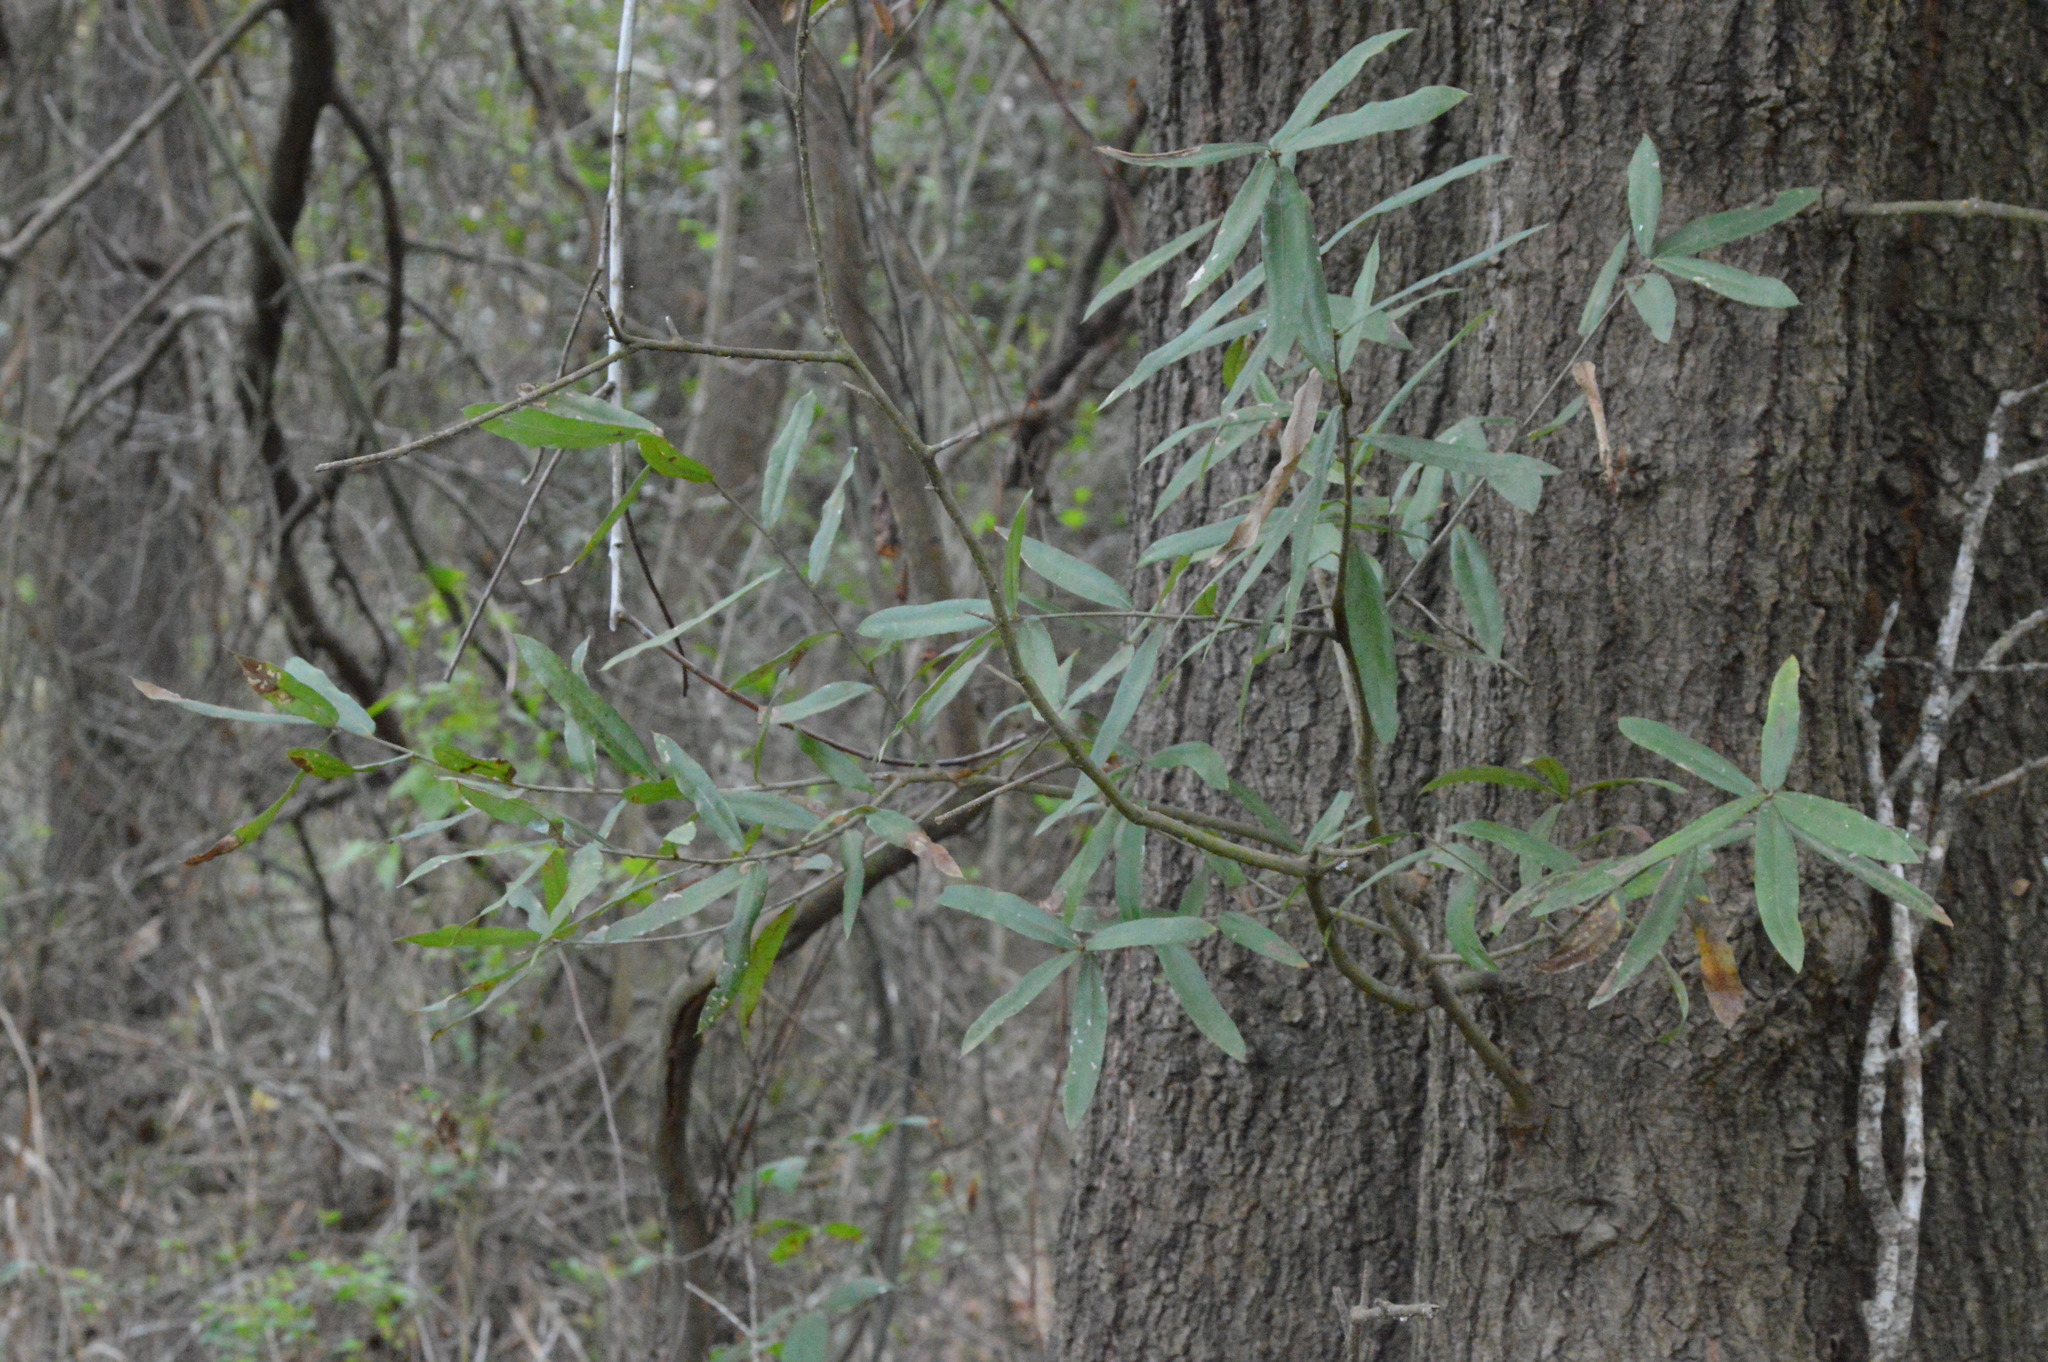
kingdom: Plantae
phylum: Tracheophyta
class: Magnoliopsida
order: Fagales
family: Fagaceae
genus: Quercus
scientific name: Quercus phellos
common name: Willow oak
